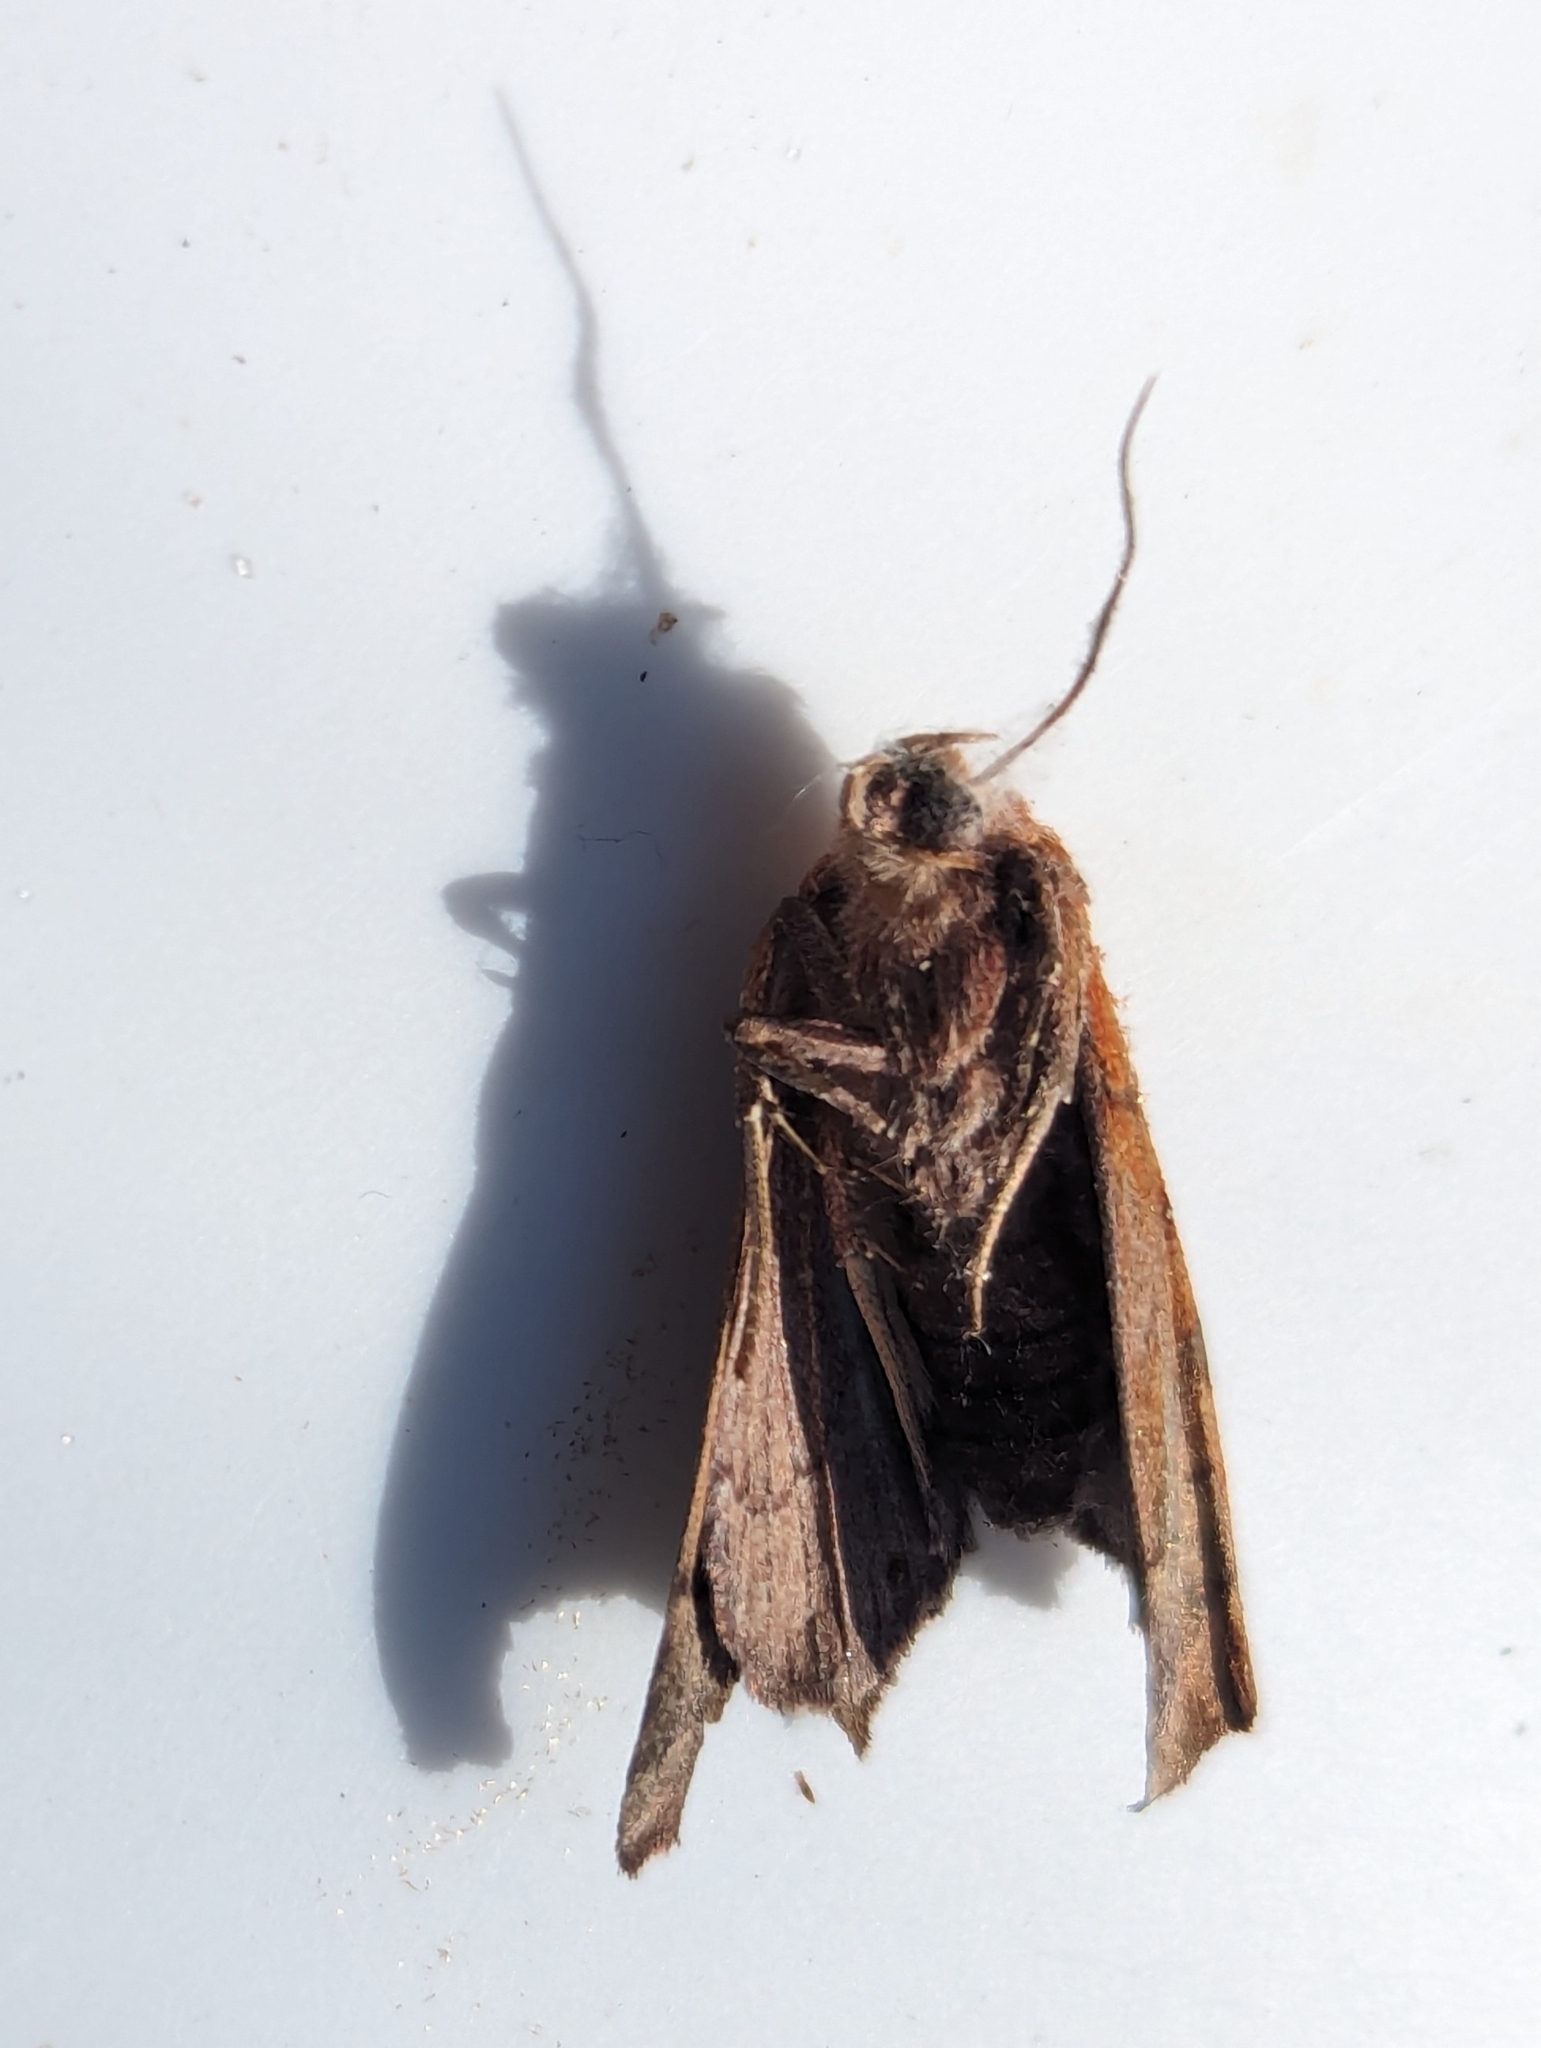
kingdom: Animalia
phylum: Arthropoda
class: Insecta
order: Lepidoptera
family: Erebidae
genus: Rusicada
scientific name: Rusicada privata
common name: Hibiscus leaf caterpillar moth
